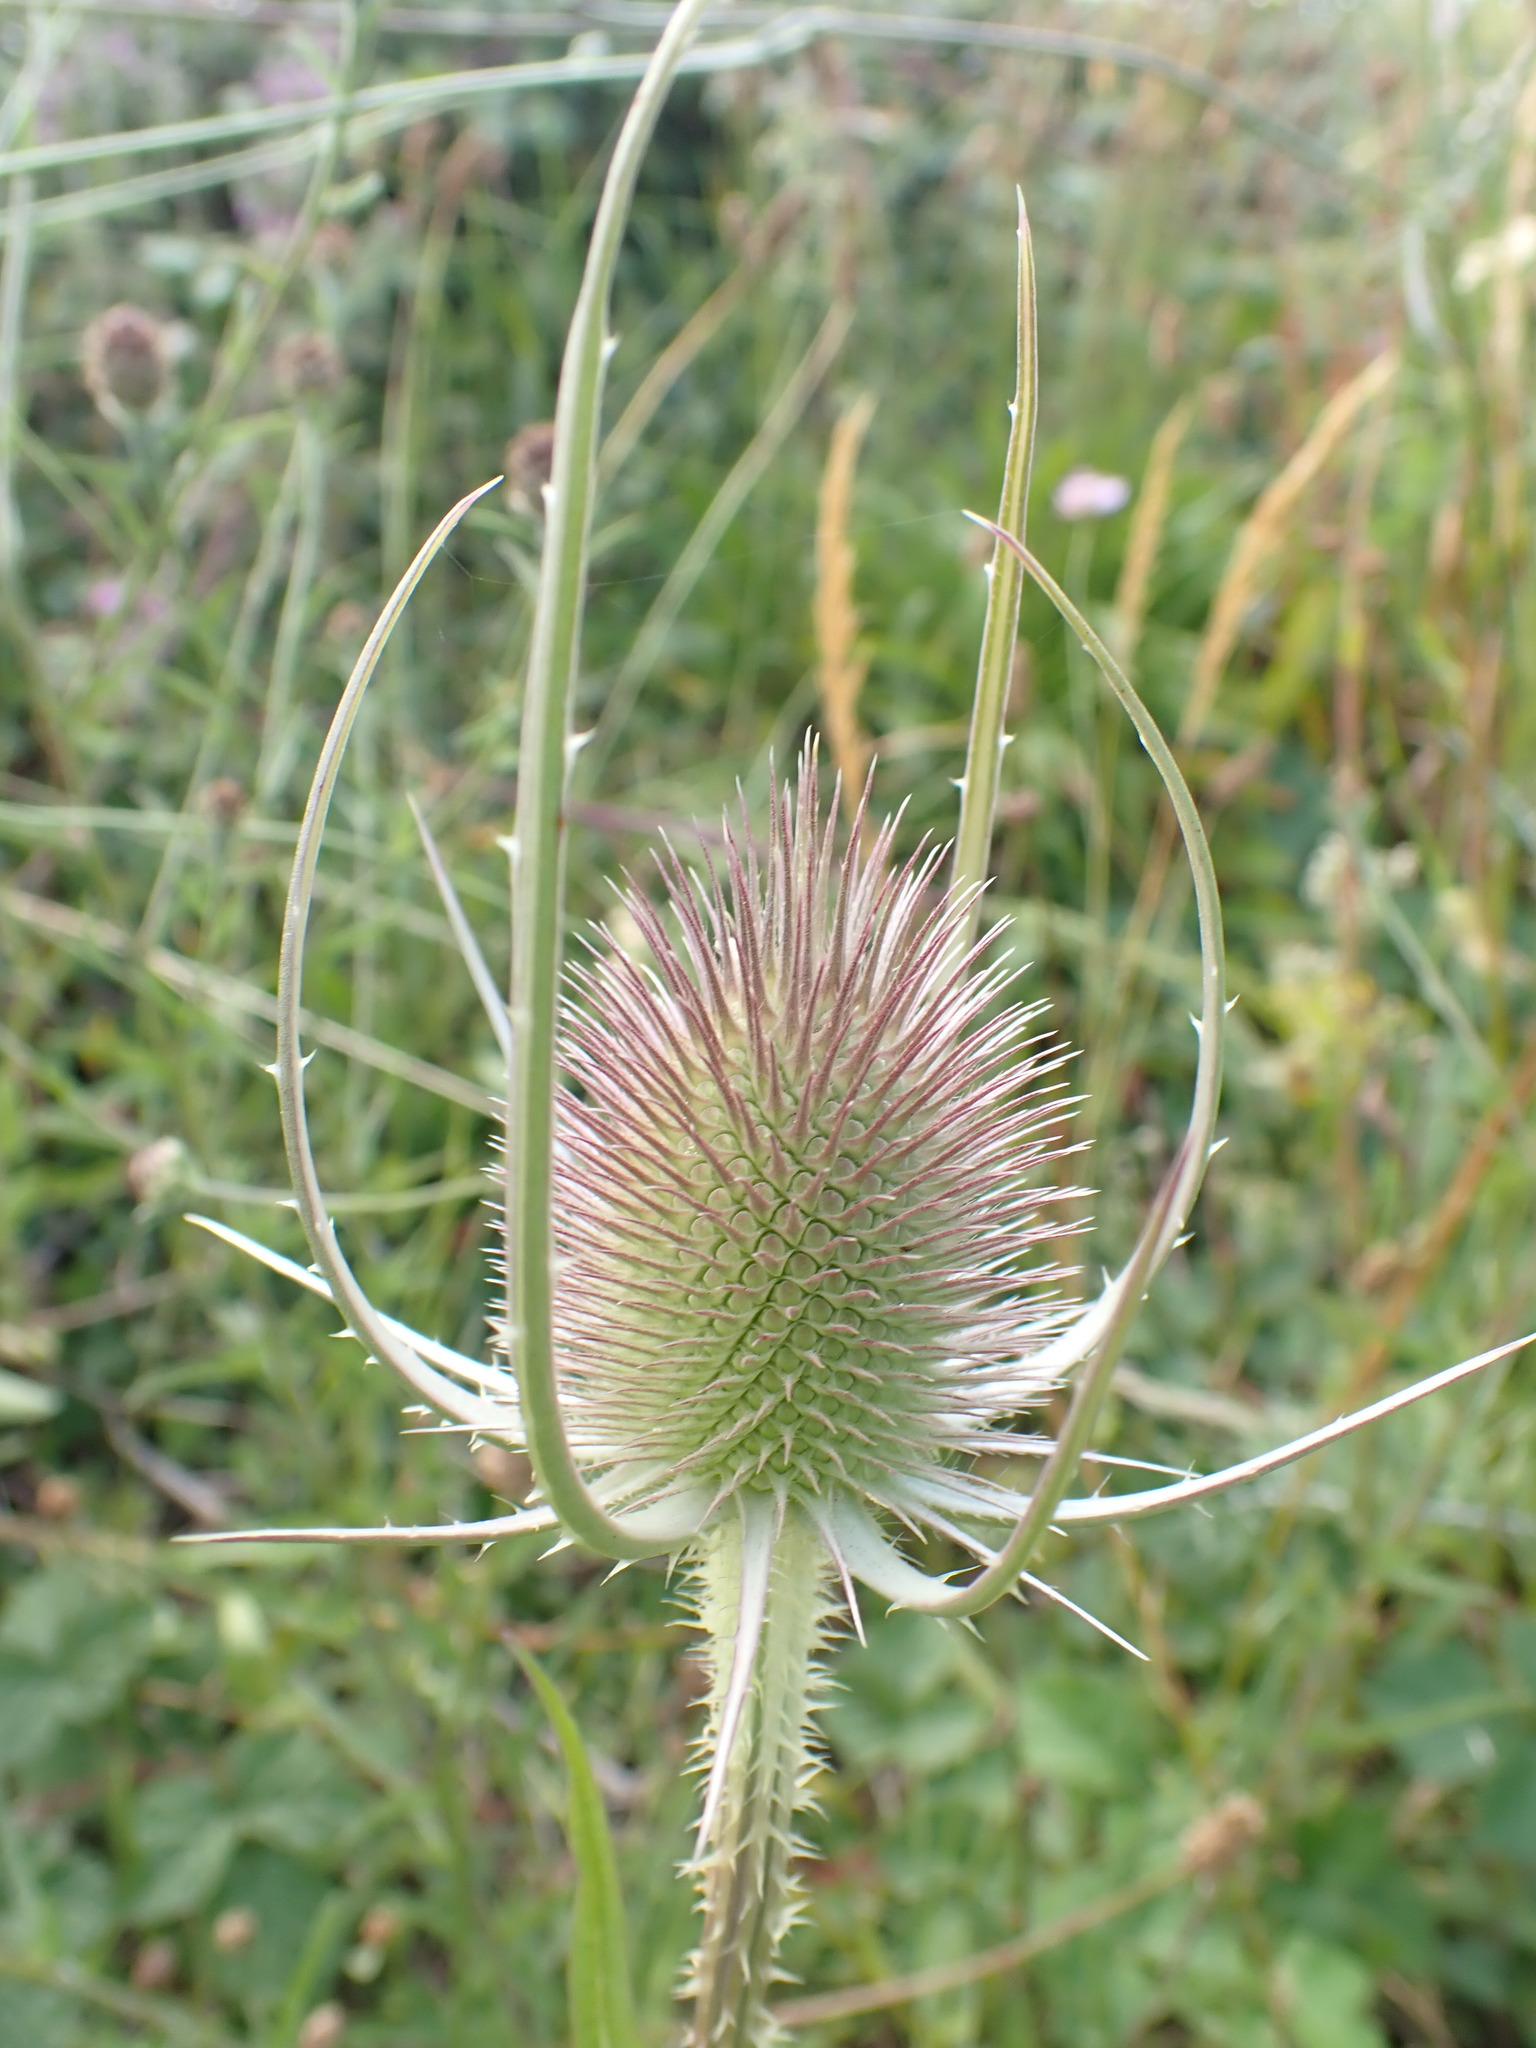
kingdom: Plantae
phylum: Tracheophyta
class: Magnoliopsida
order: Dipsacales
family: Caprifoliaceae
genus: Dipsacus
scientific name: Dipsacus fullonum
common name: Teasel
